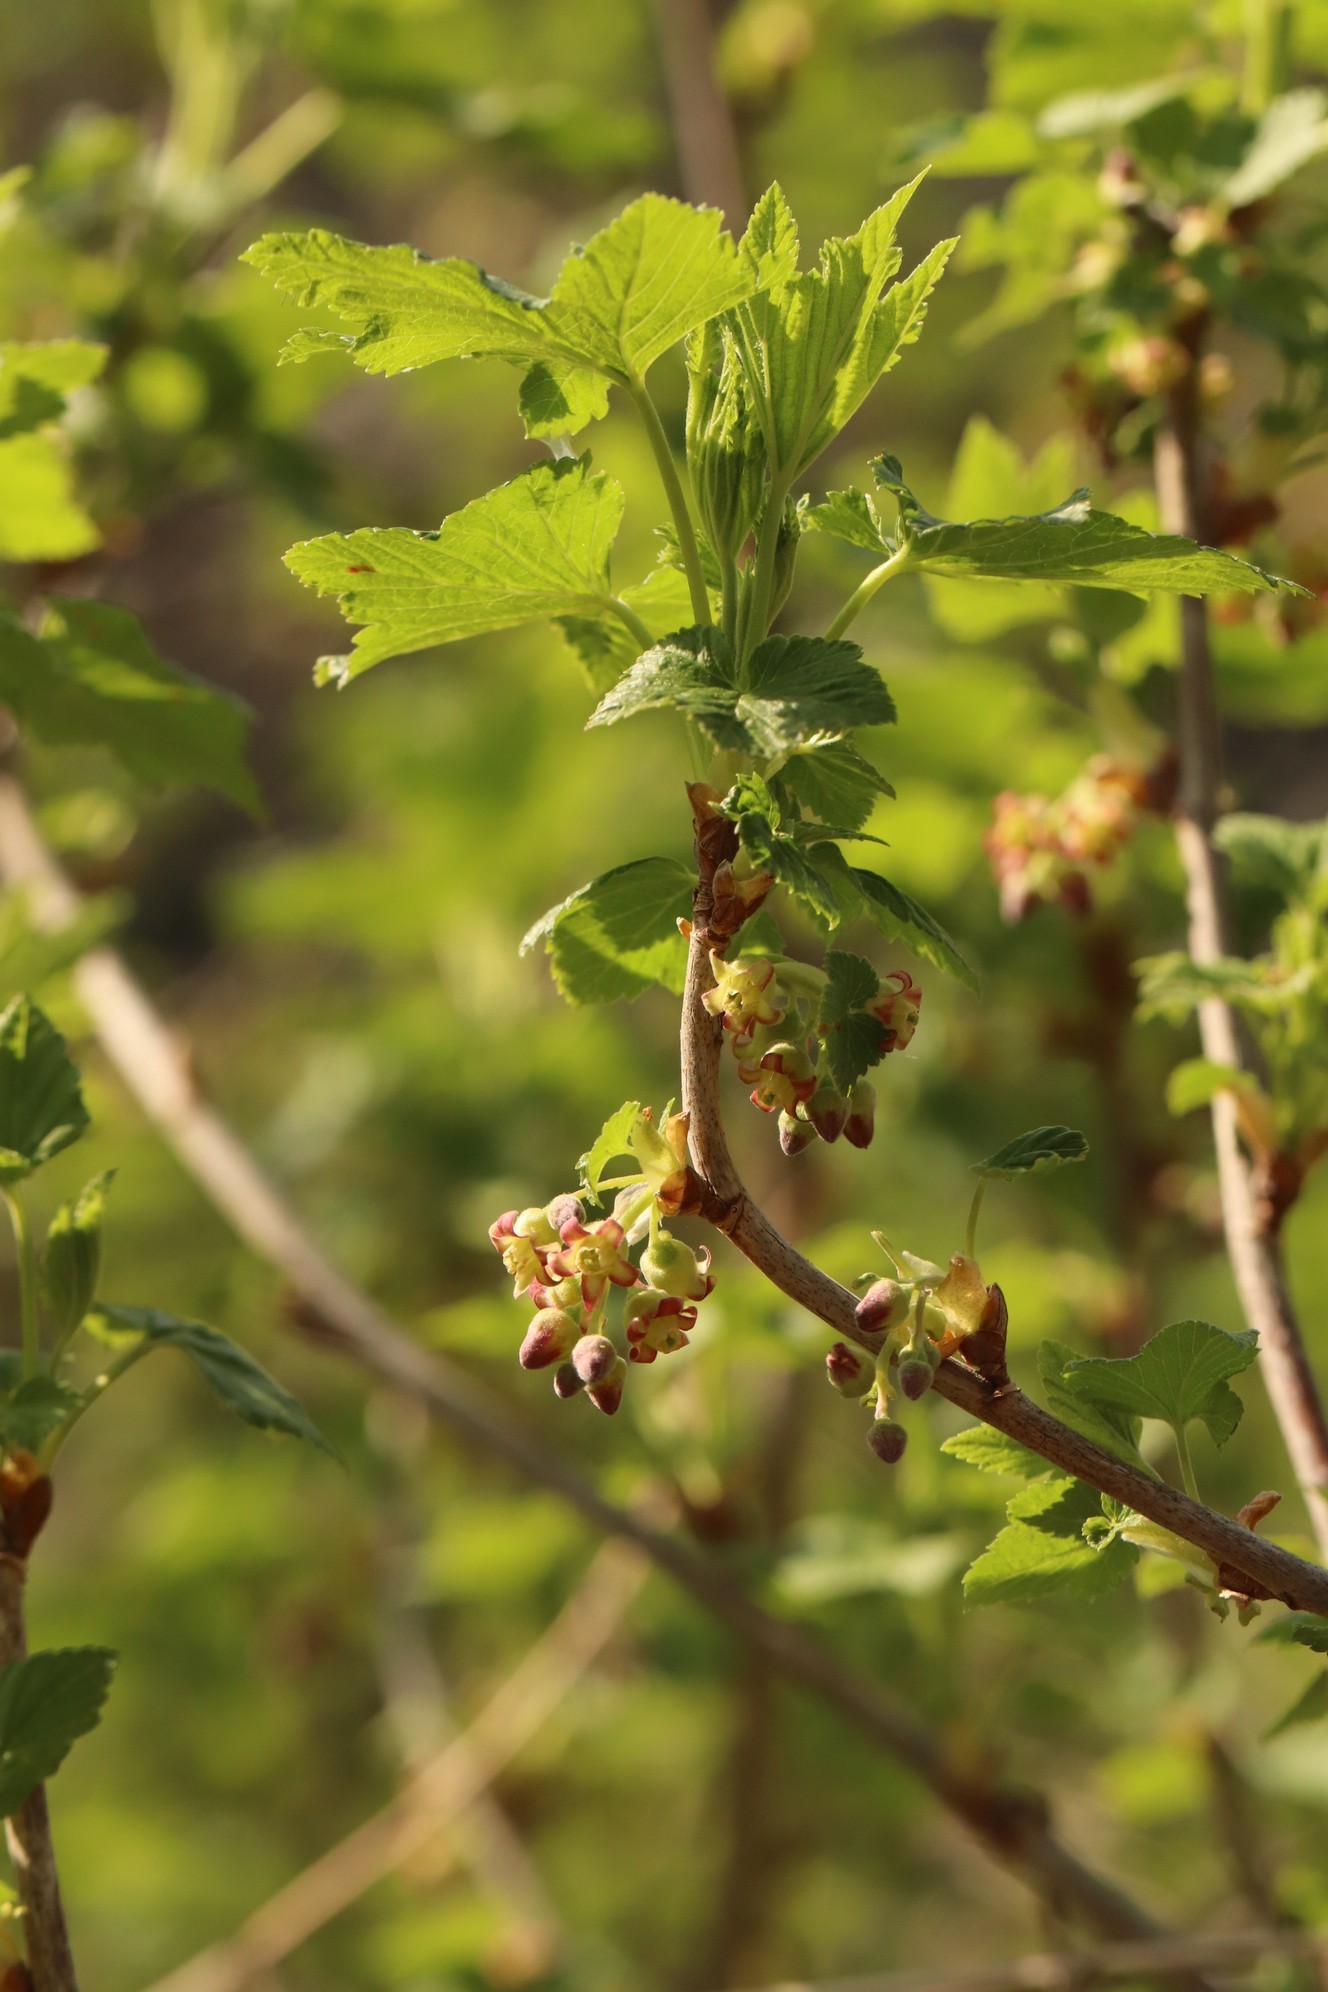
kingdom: Plantae
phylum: Tracheophyta
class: Magnoliopsida
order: Saxifragales
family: Grossulariaceae
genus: Ribes
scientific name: Ribes nigrum
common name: Black currant
